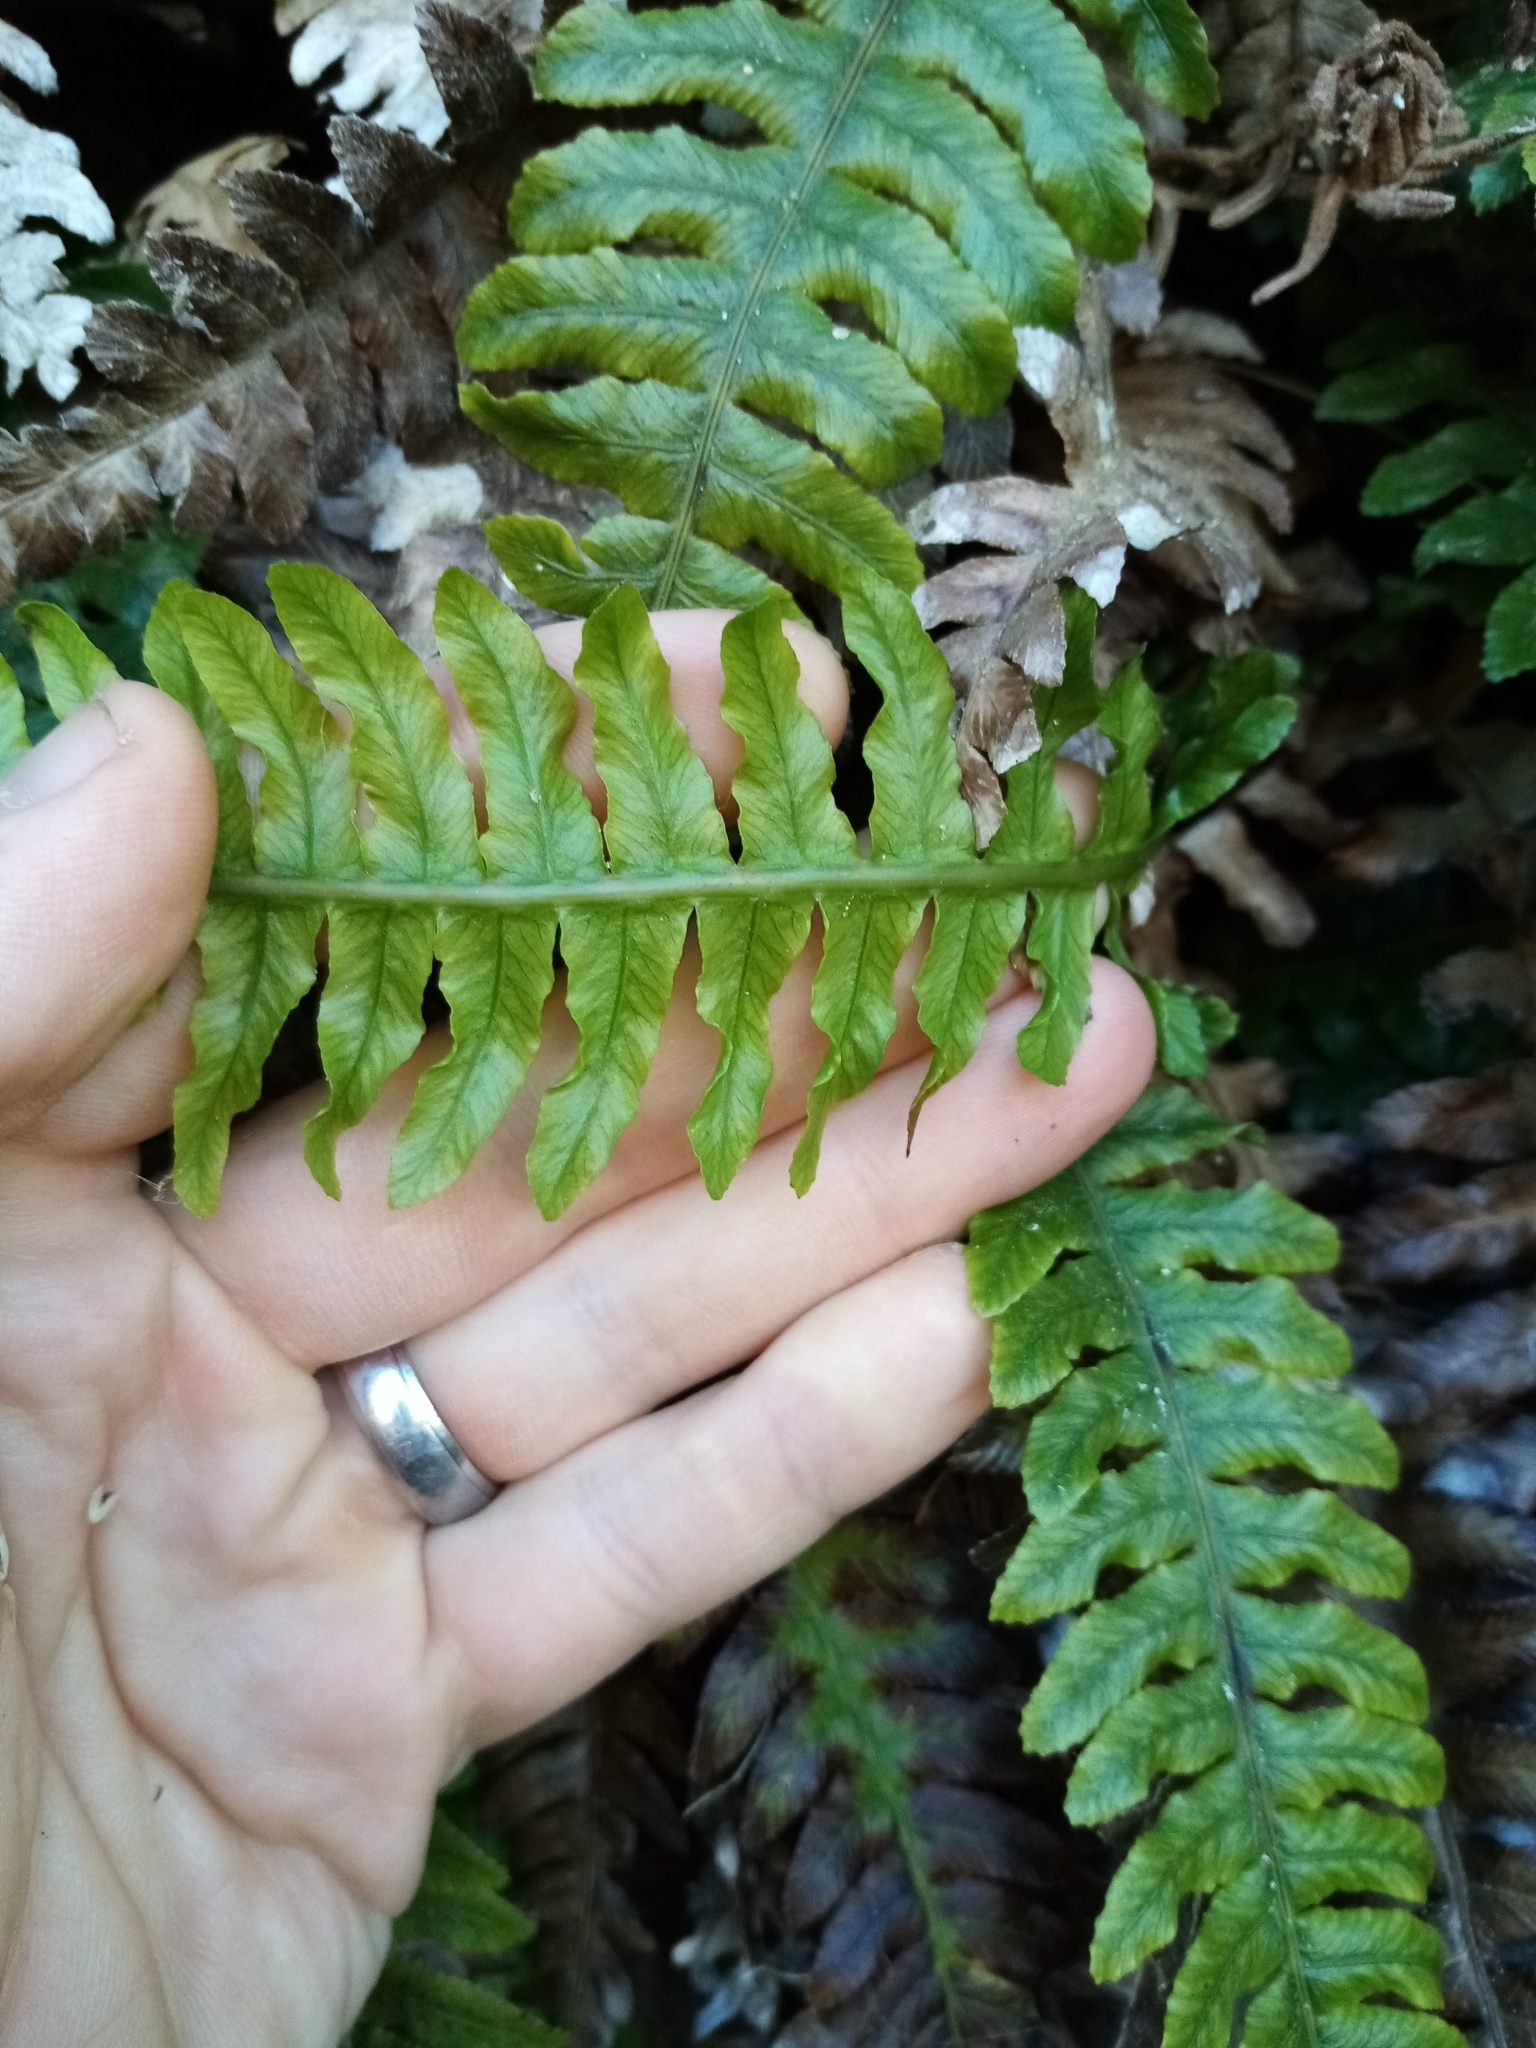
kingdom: Plantae
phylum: Tracheophyta
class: Polypodiopsida
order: Polypodiales
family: Blechnaceae
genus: Austroblechnum
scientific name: Austroblechnum lanceolatum
